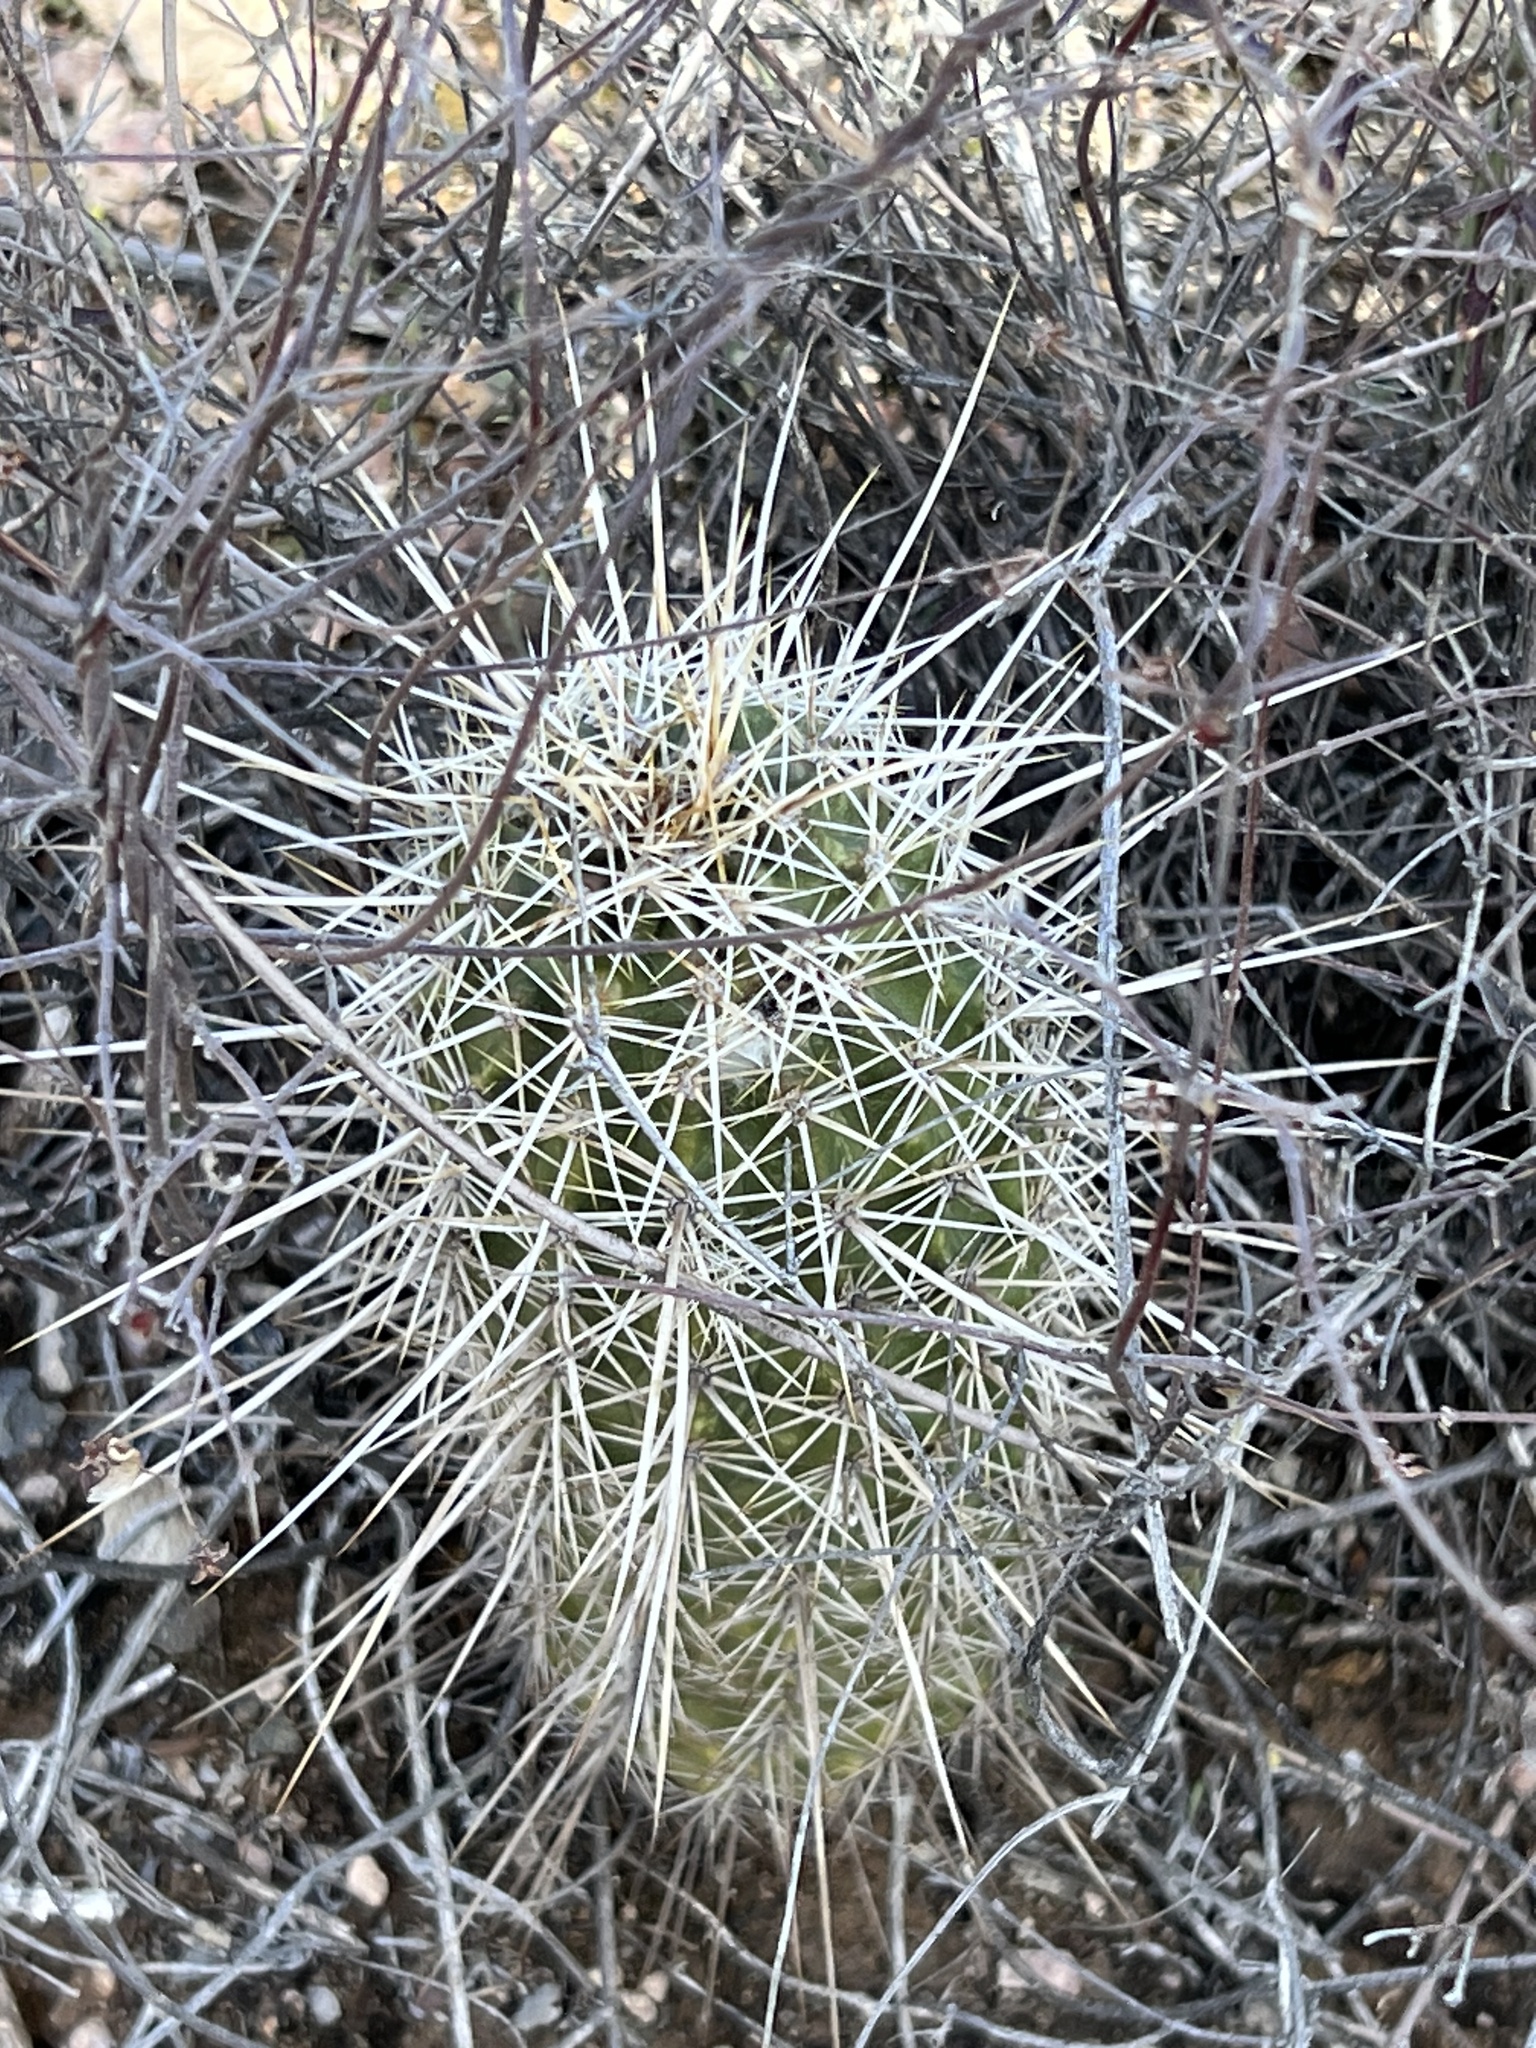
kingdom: Plantae
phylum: Tracheophyta
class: Magnoliopsida
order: Caryophyllales
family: Cactaceae
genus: Echinocereus
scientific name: Echinocereus fasciculatus
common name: Bundle hedgehog
